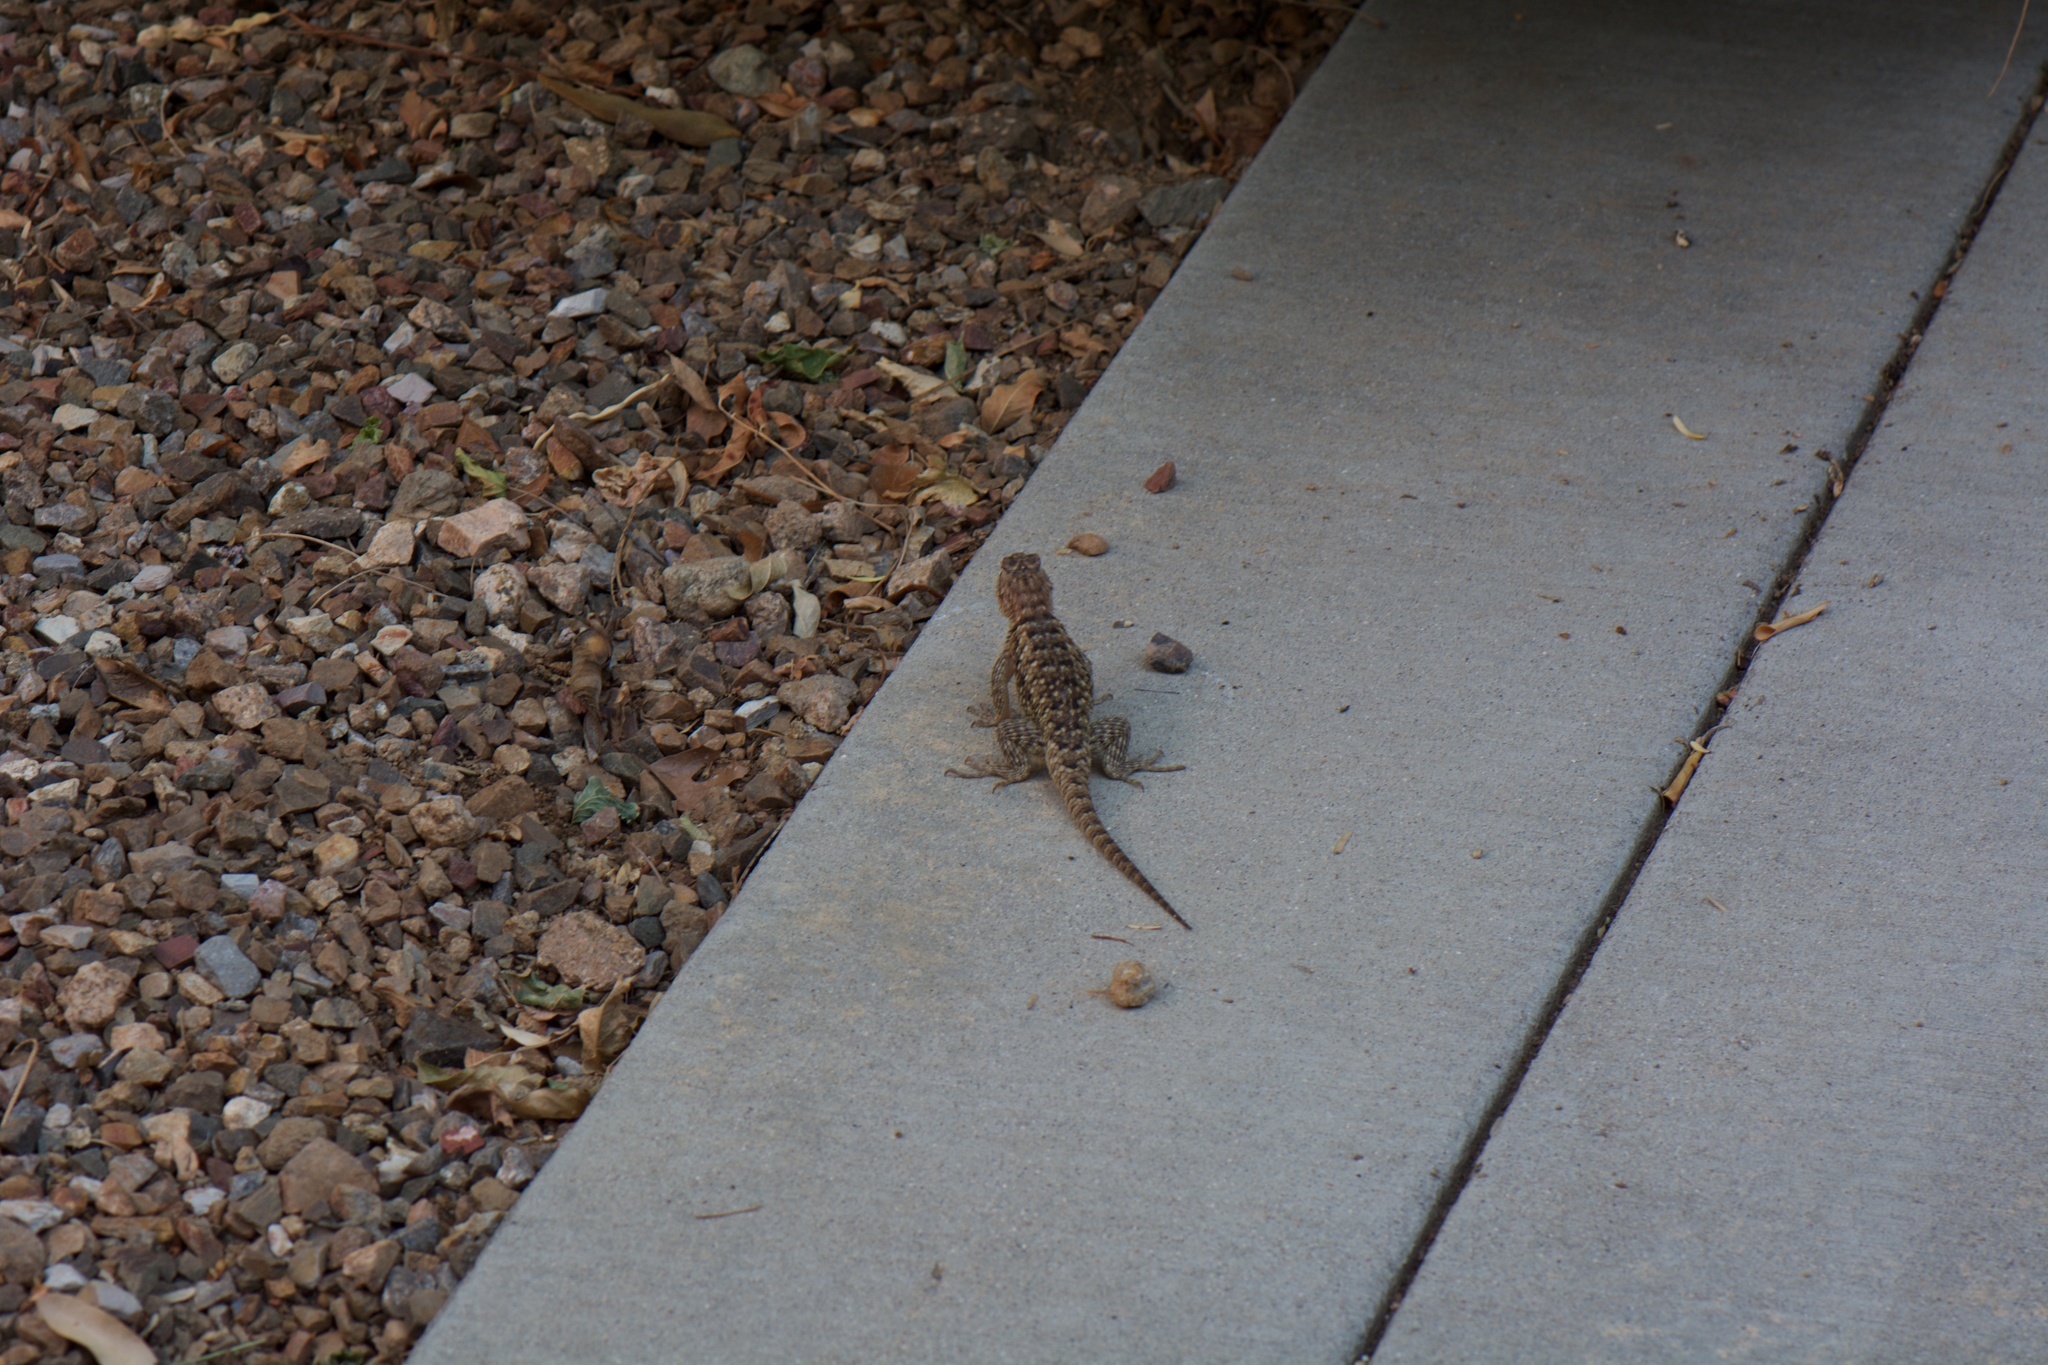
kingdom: Animalia
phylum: Chordata
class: Squamata
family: Phrynosomatidae
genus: Sceloporus
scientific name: Sceloporus magister
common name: Desert spiny lizard
